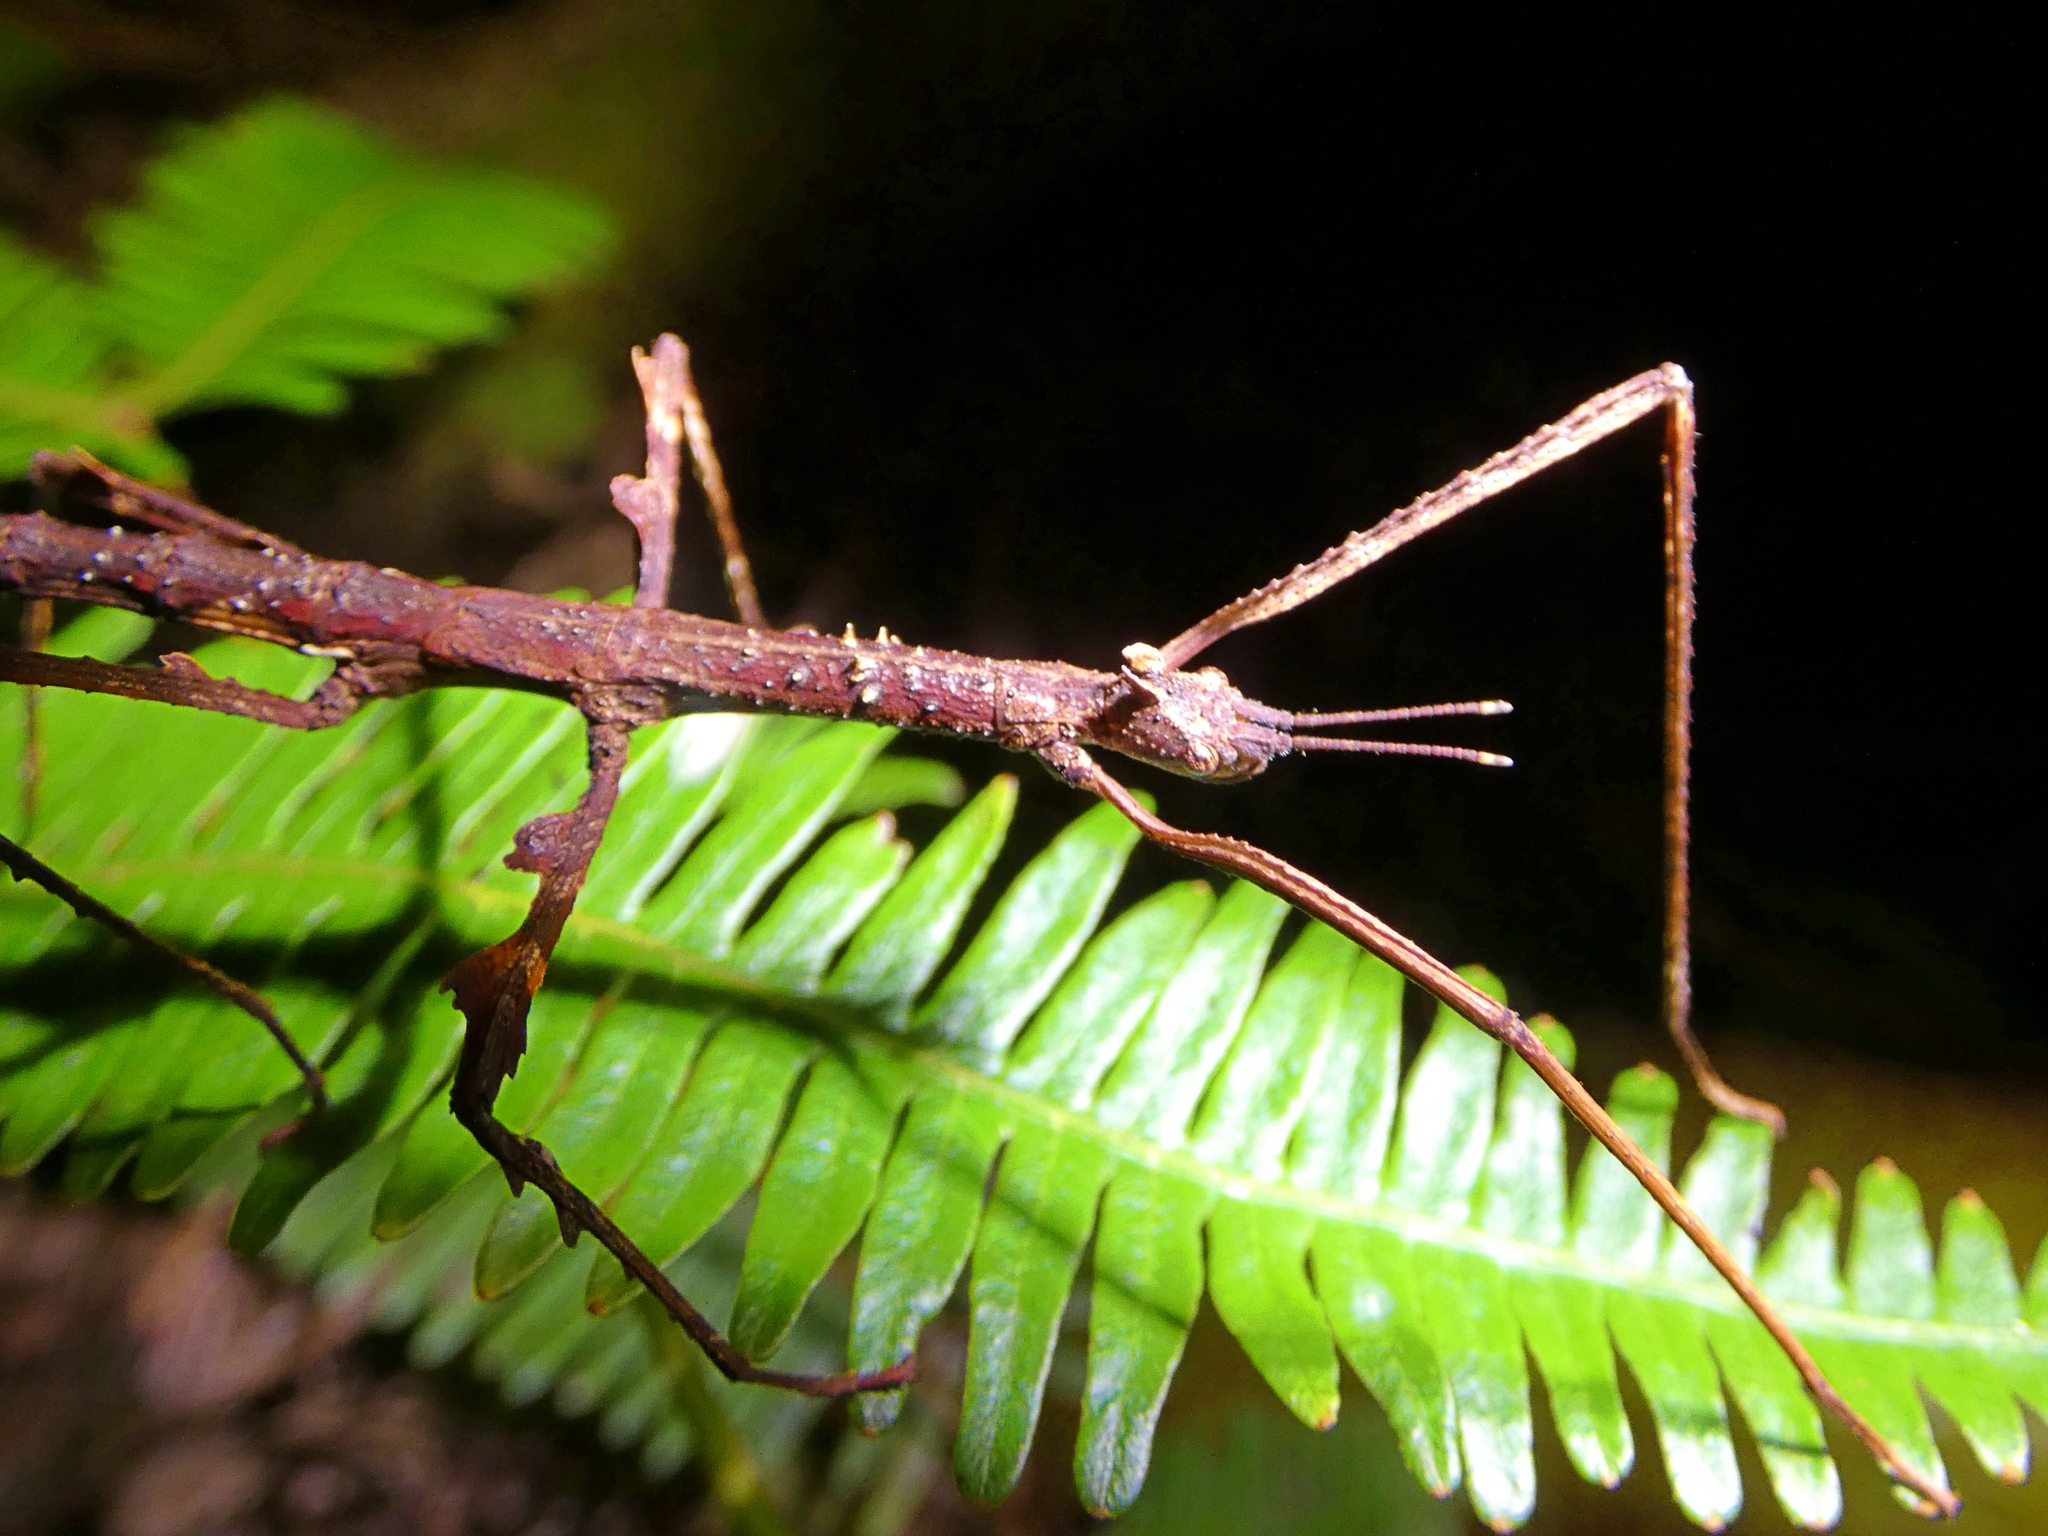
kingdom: Animalia
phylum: Arthropoda
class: Insecta
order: Phasmida
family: Phasmatidae
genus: Onchestus
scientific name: Onchestus rentzi
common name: Rentz's stick-insect
